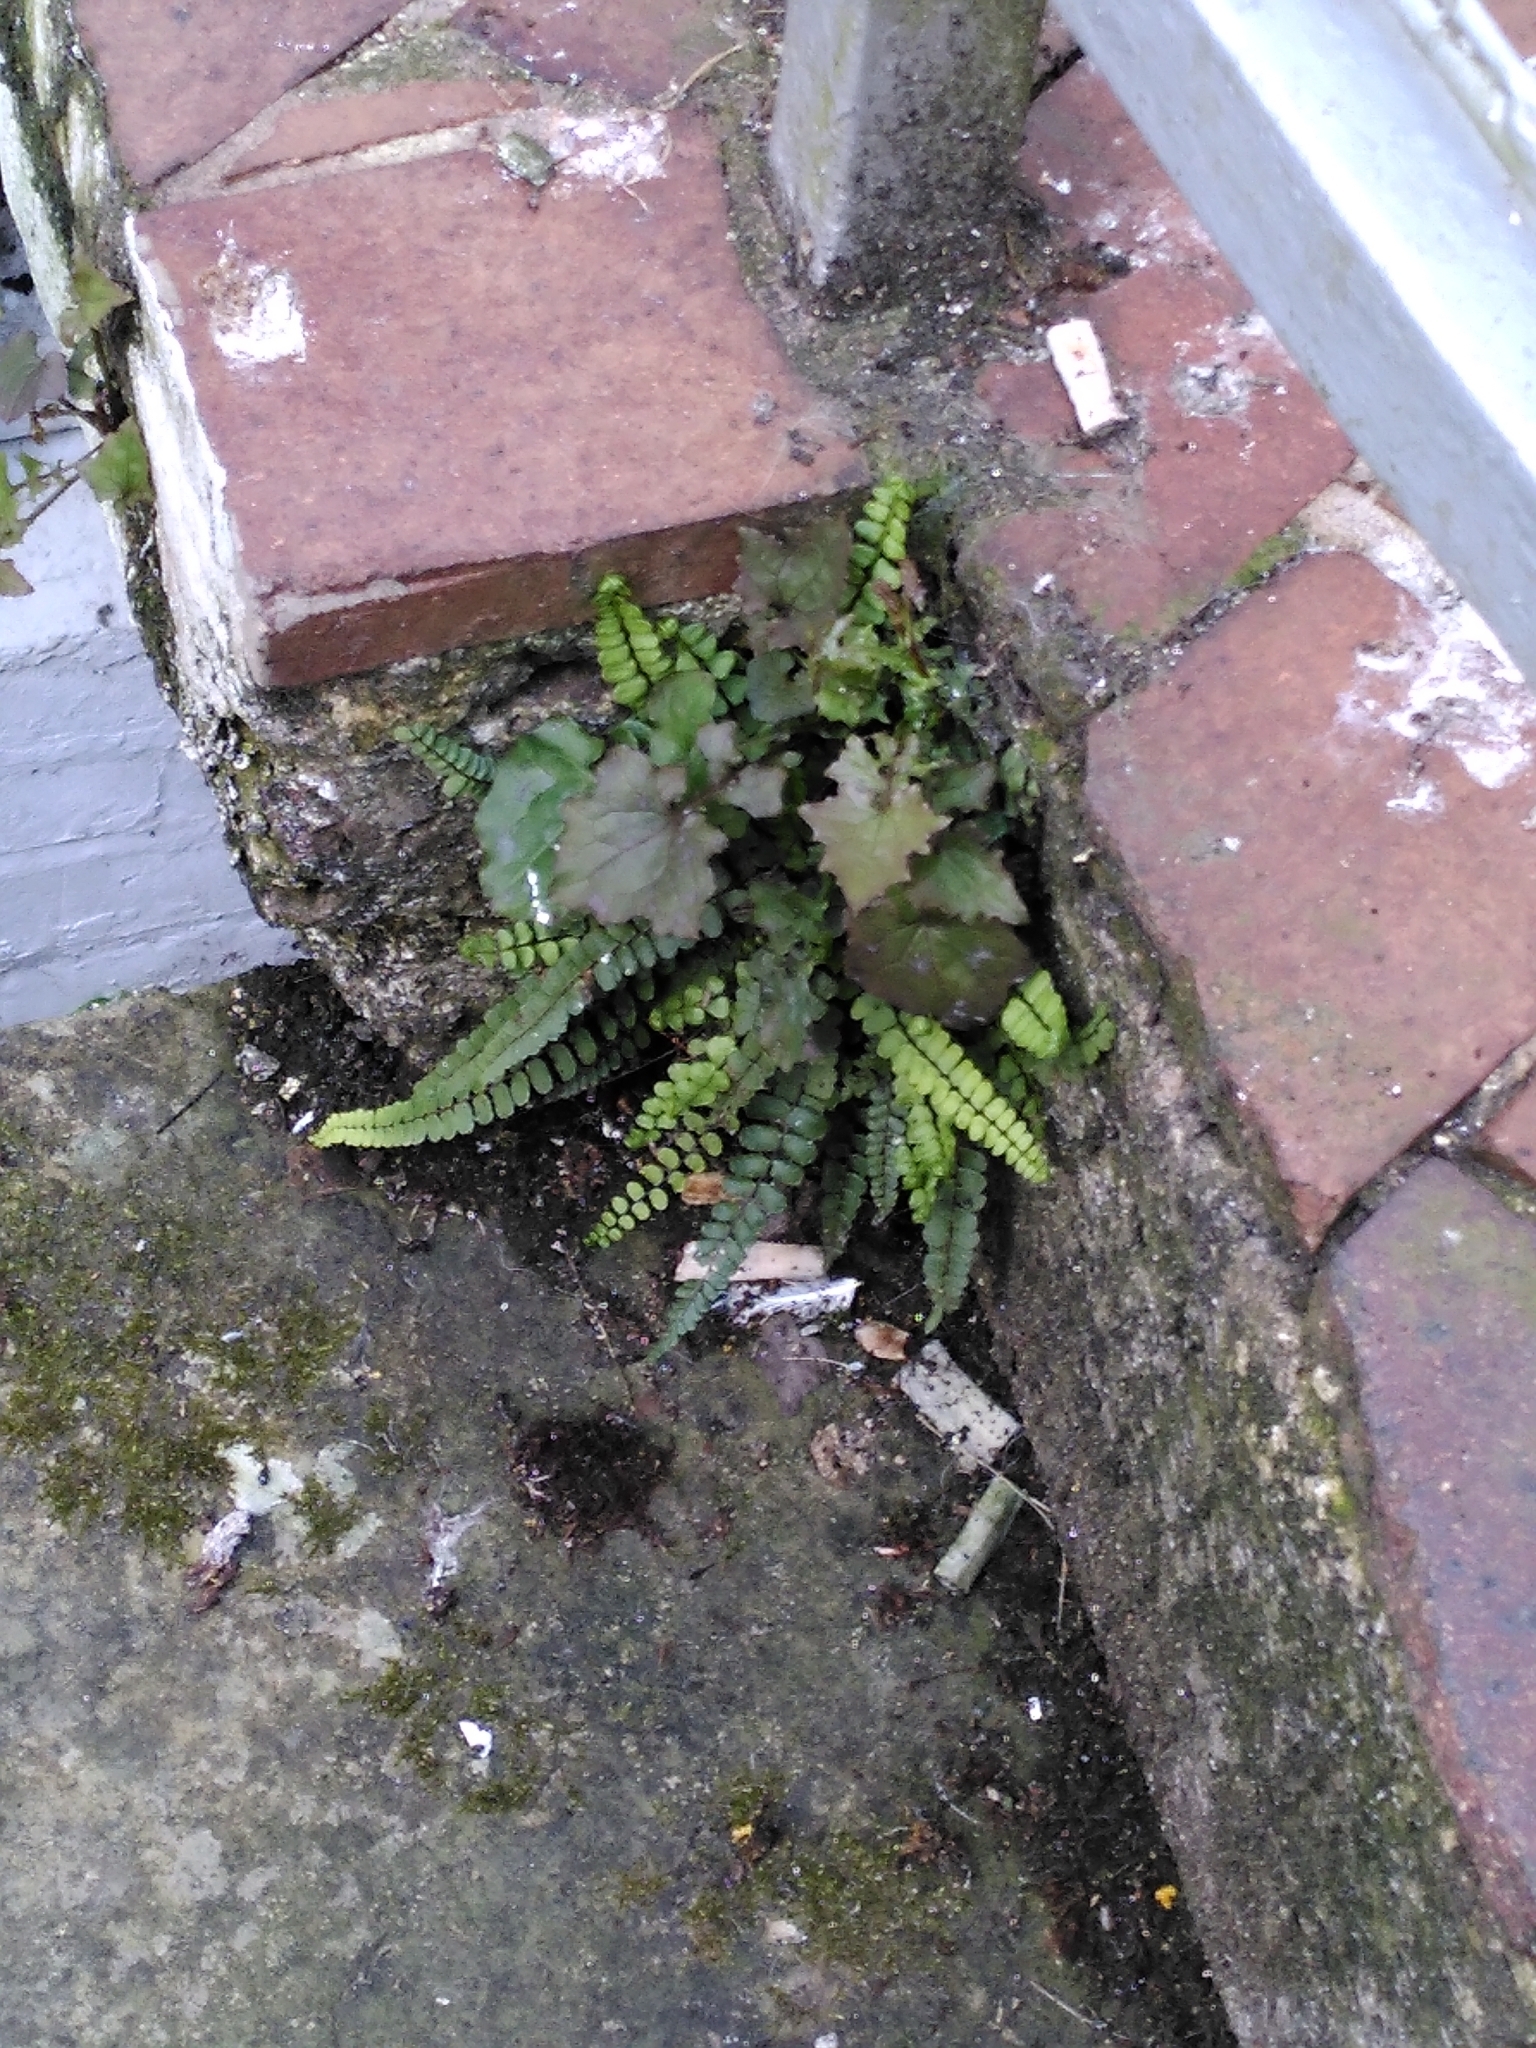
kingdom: Plantae
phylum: Tracheophyta
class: Polypodiopsida
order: Polypodiales
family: Aspleniaceae
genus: Asplenium
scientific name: Asplenium trichomanes
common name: Maidenhair spleenwort
